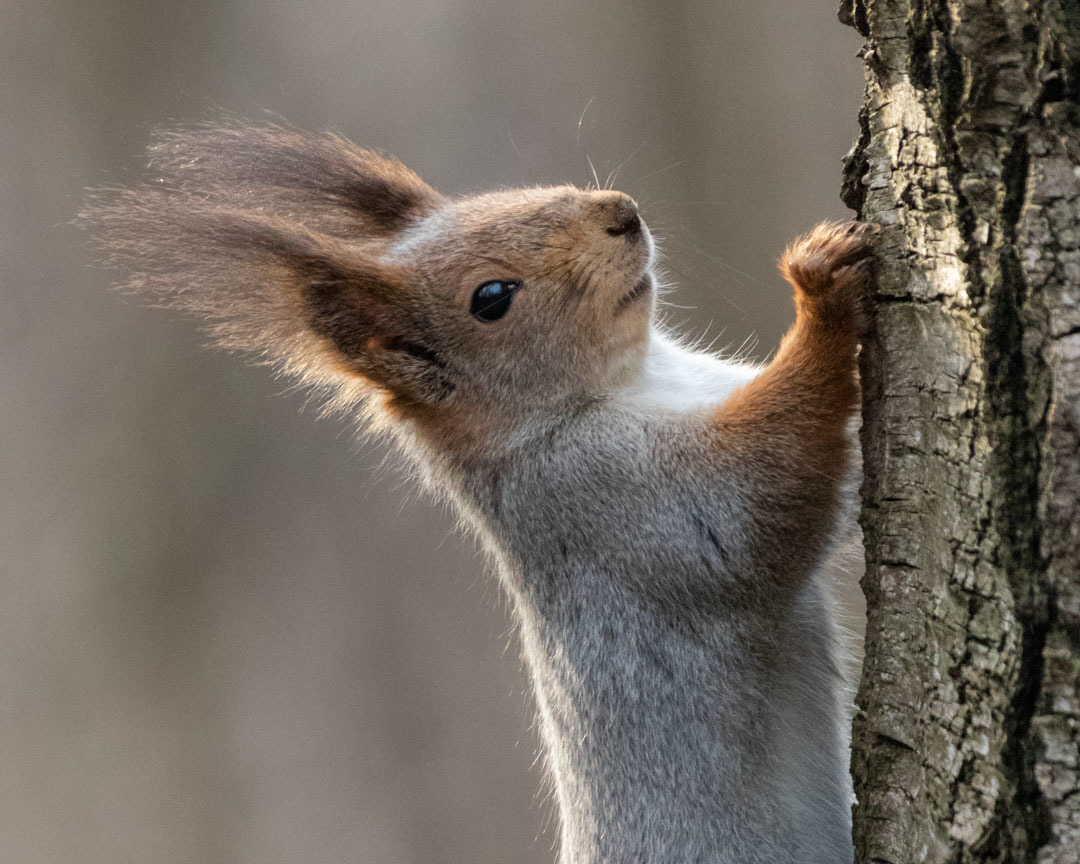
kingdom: Animalia
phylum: Chordata
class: Mammalia
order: Rodentia
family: Sciuridae
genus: Sciurus
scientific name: Sciurus vulgaris
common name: Eurasian red squirrel
